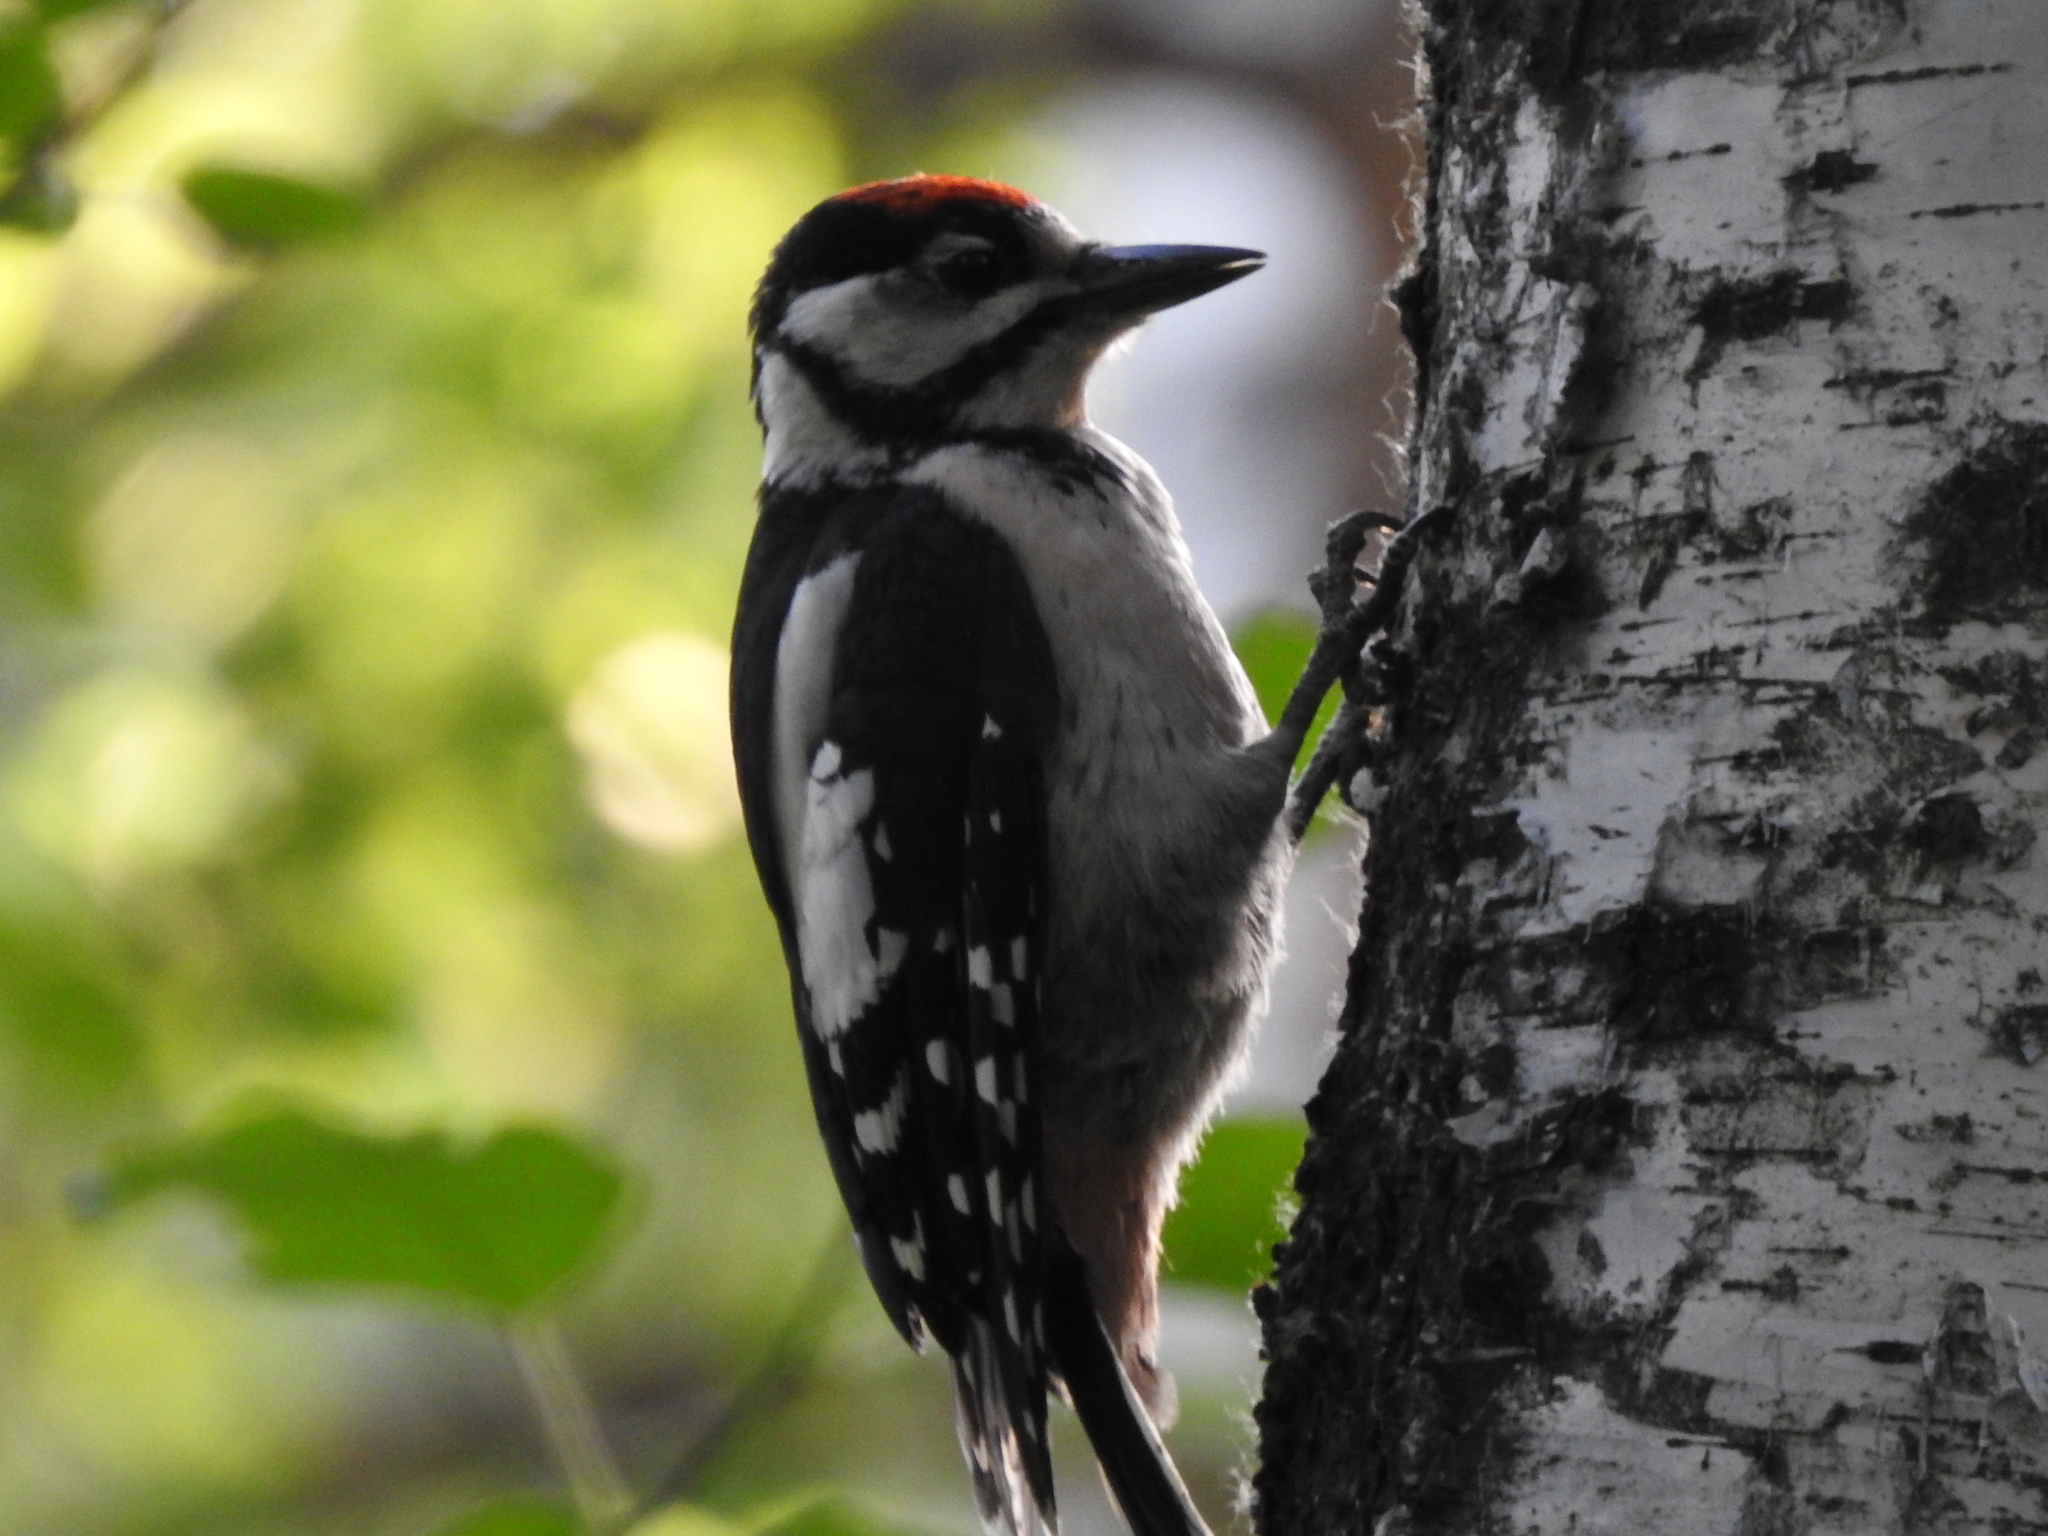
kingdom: Animalia
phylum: Chordata
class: Aves
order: Piciformes
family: Picidae
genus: Dendrocopos
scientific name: Dendrocopos major
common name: Great spotted woodpecker
